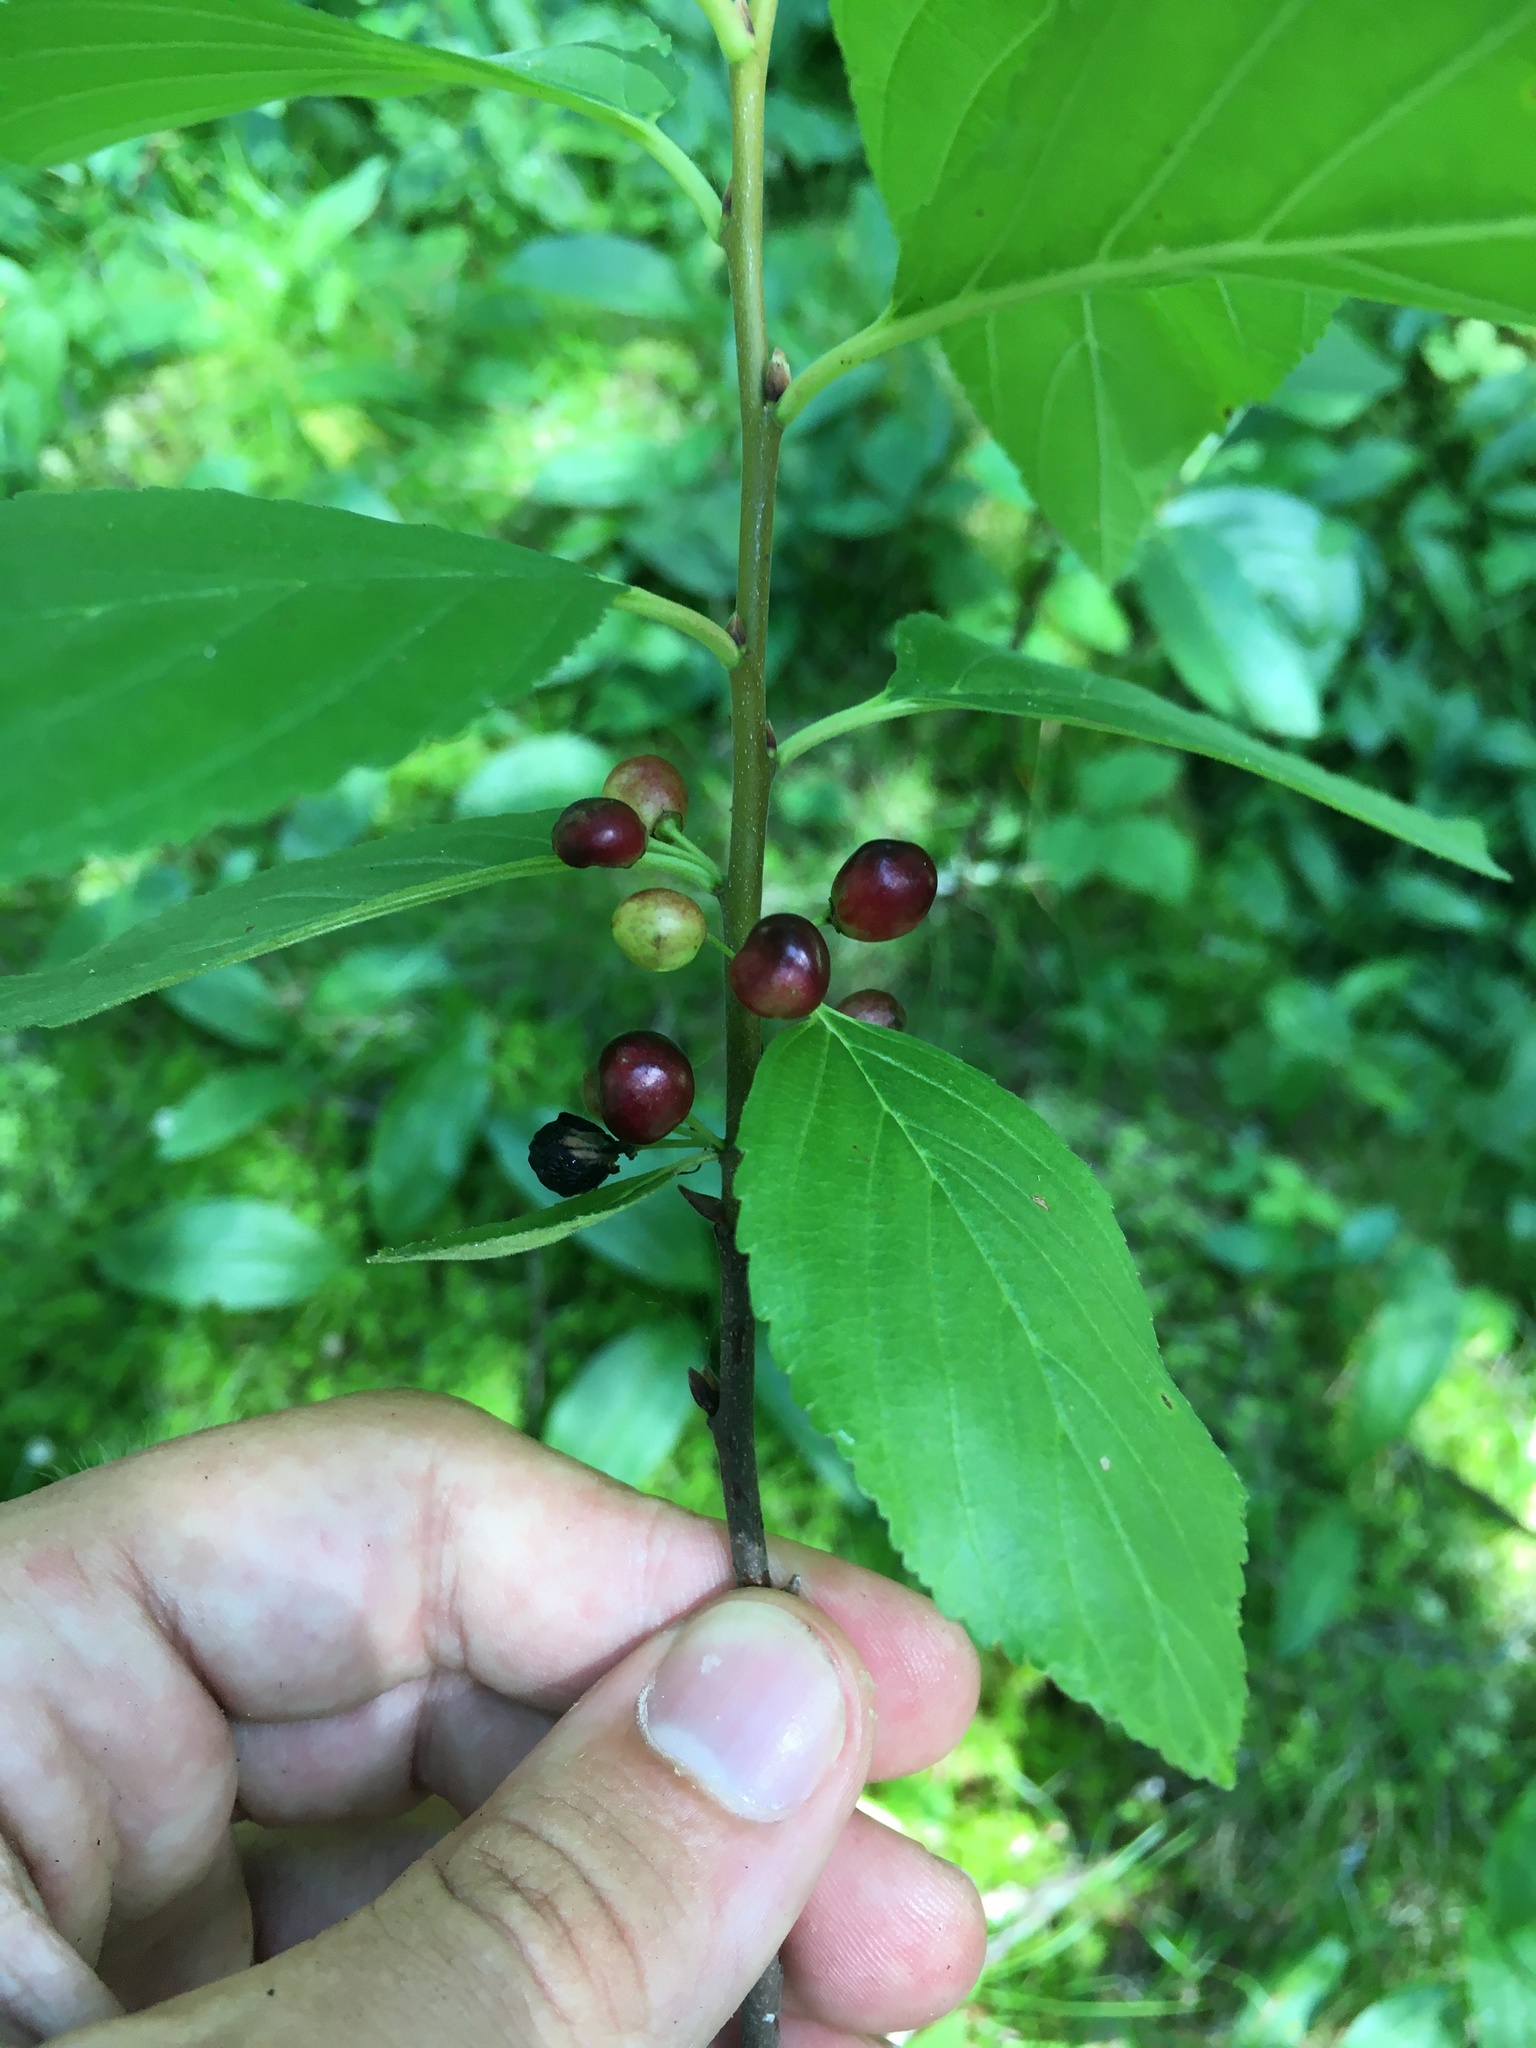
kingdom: Plantae
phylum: Tracheophyta
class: Magnoliopsida
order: Rosales
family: Rhamnaceae
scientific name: Rhamnaceae
